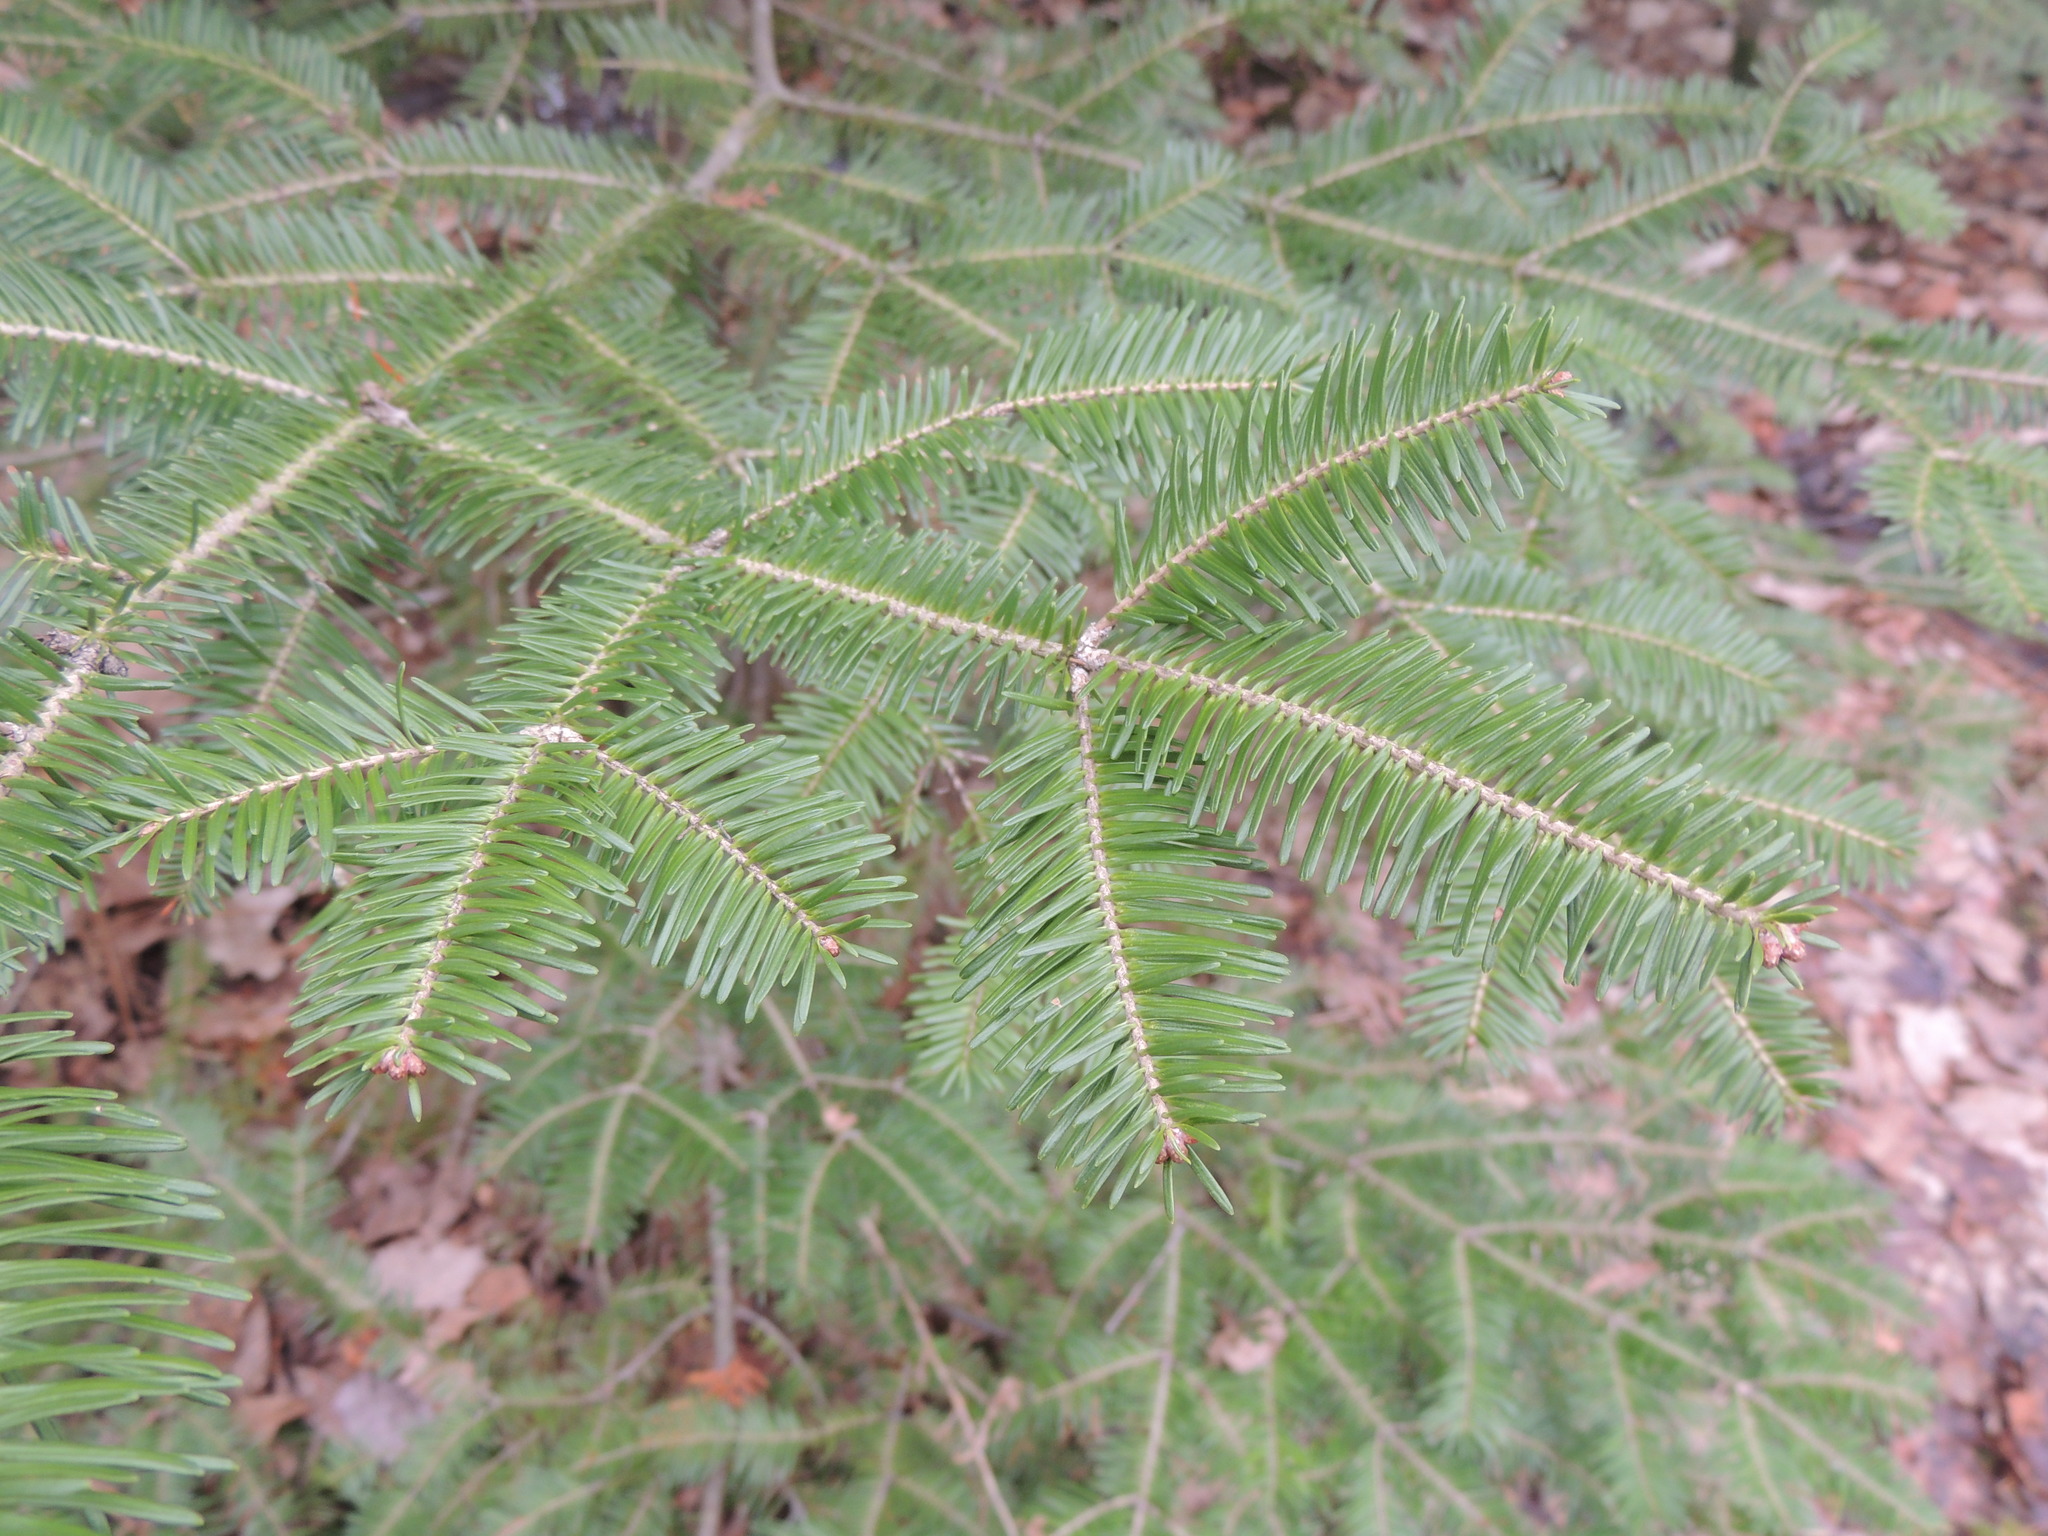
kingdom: Plantae
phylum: Tracheophyta
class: Pinopsida
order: Pinales
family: Pinaceae
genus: Abies
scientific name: Abies balsamea
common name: Balsam fir
